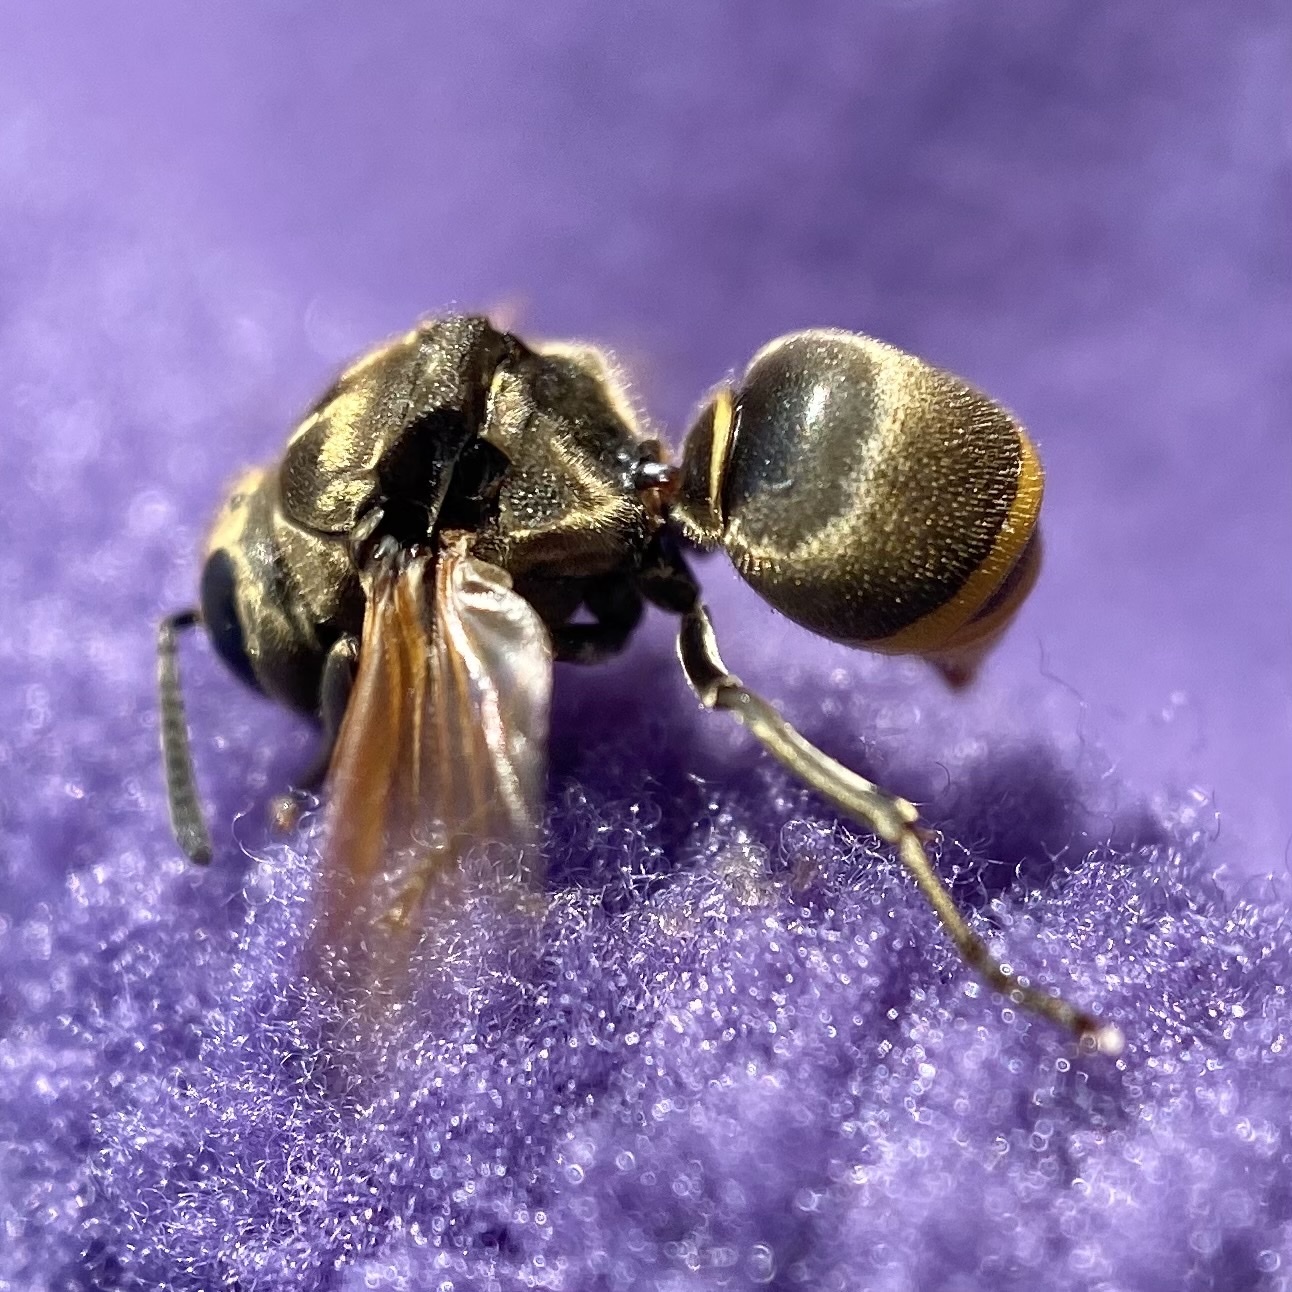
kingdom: Animalia
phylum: Arthropoda
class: Insecta
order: Hymenoptera
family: Vespidae
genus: Brachygastra
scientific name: Brachygastra mellifica
